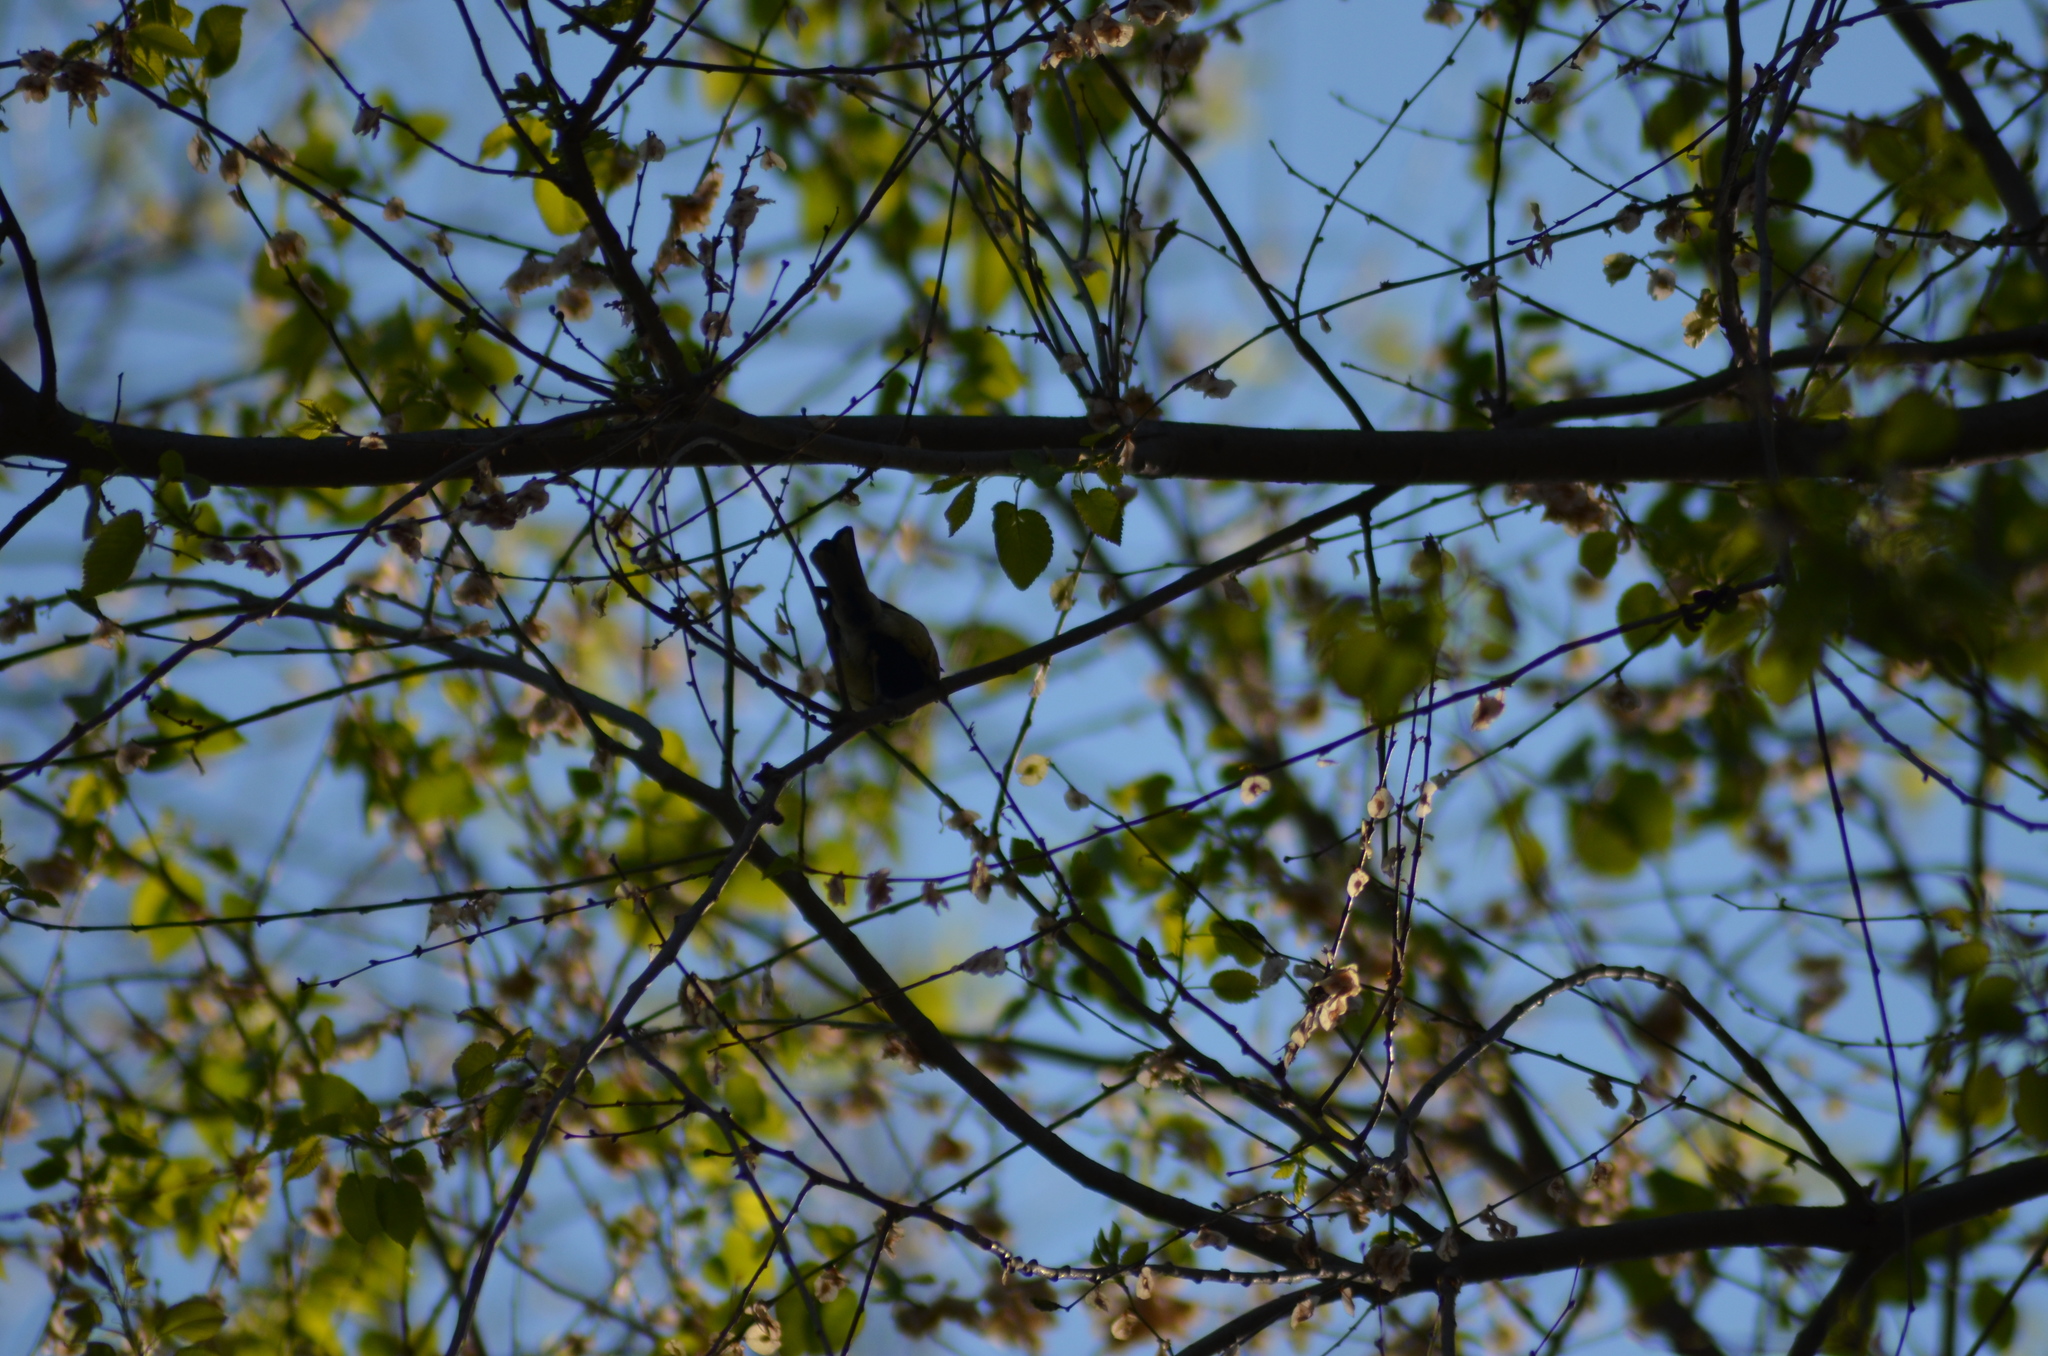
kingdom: Animalia
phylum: Chordata
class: Aves
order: Passeriformes
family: Paridae
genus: Parus
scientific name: Parus major
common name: Great tit
